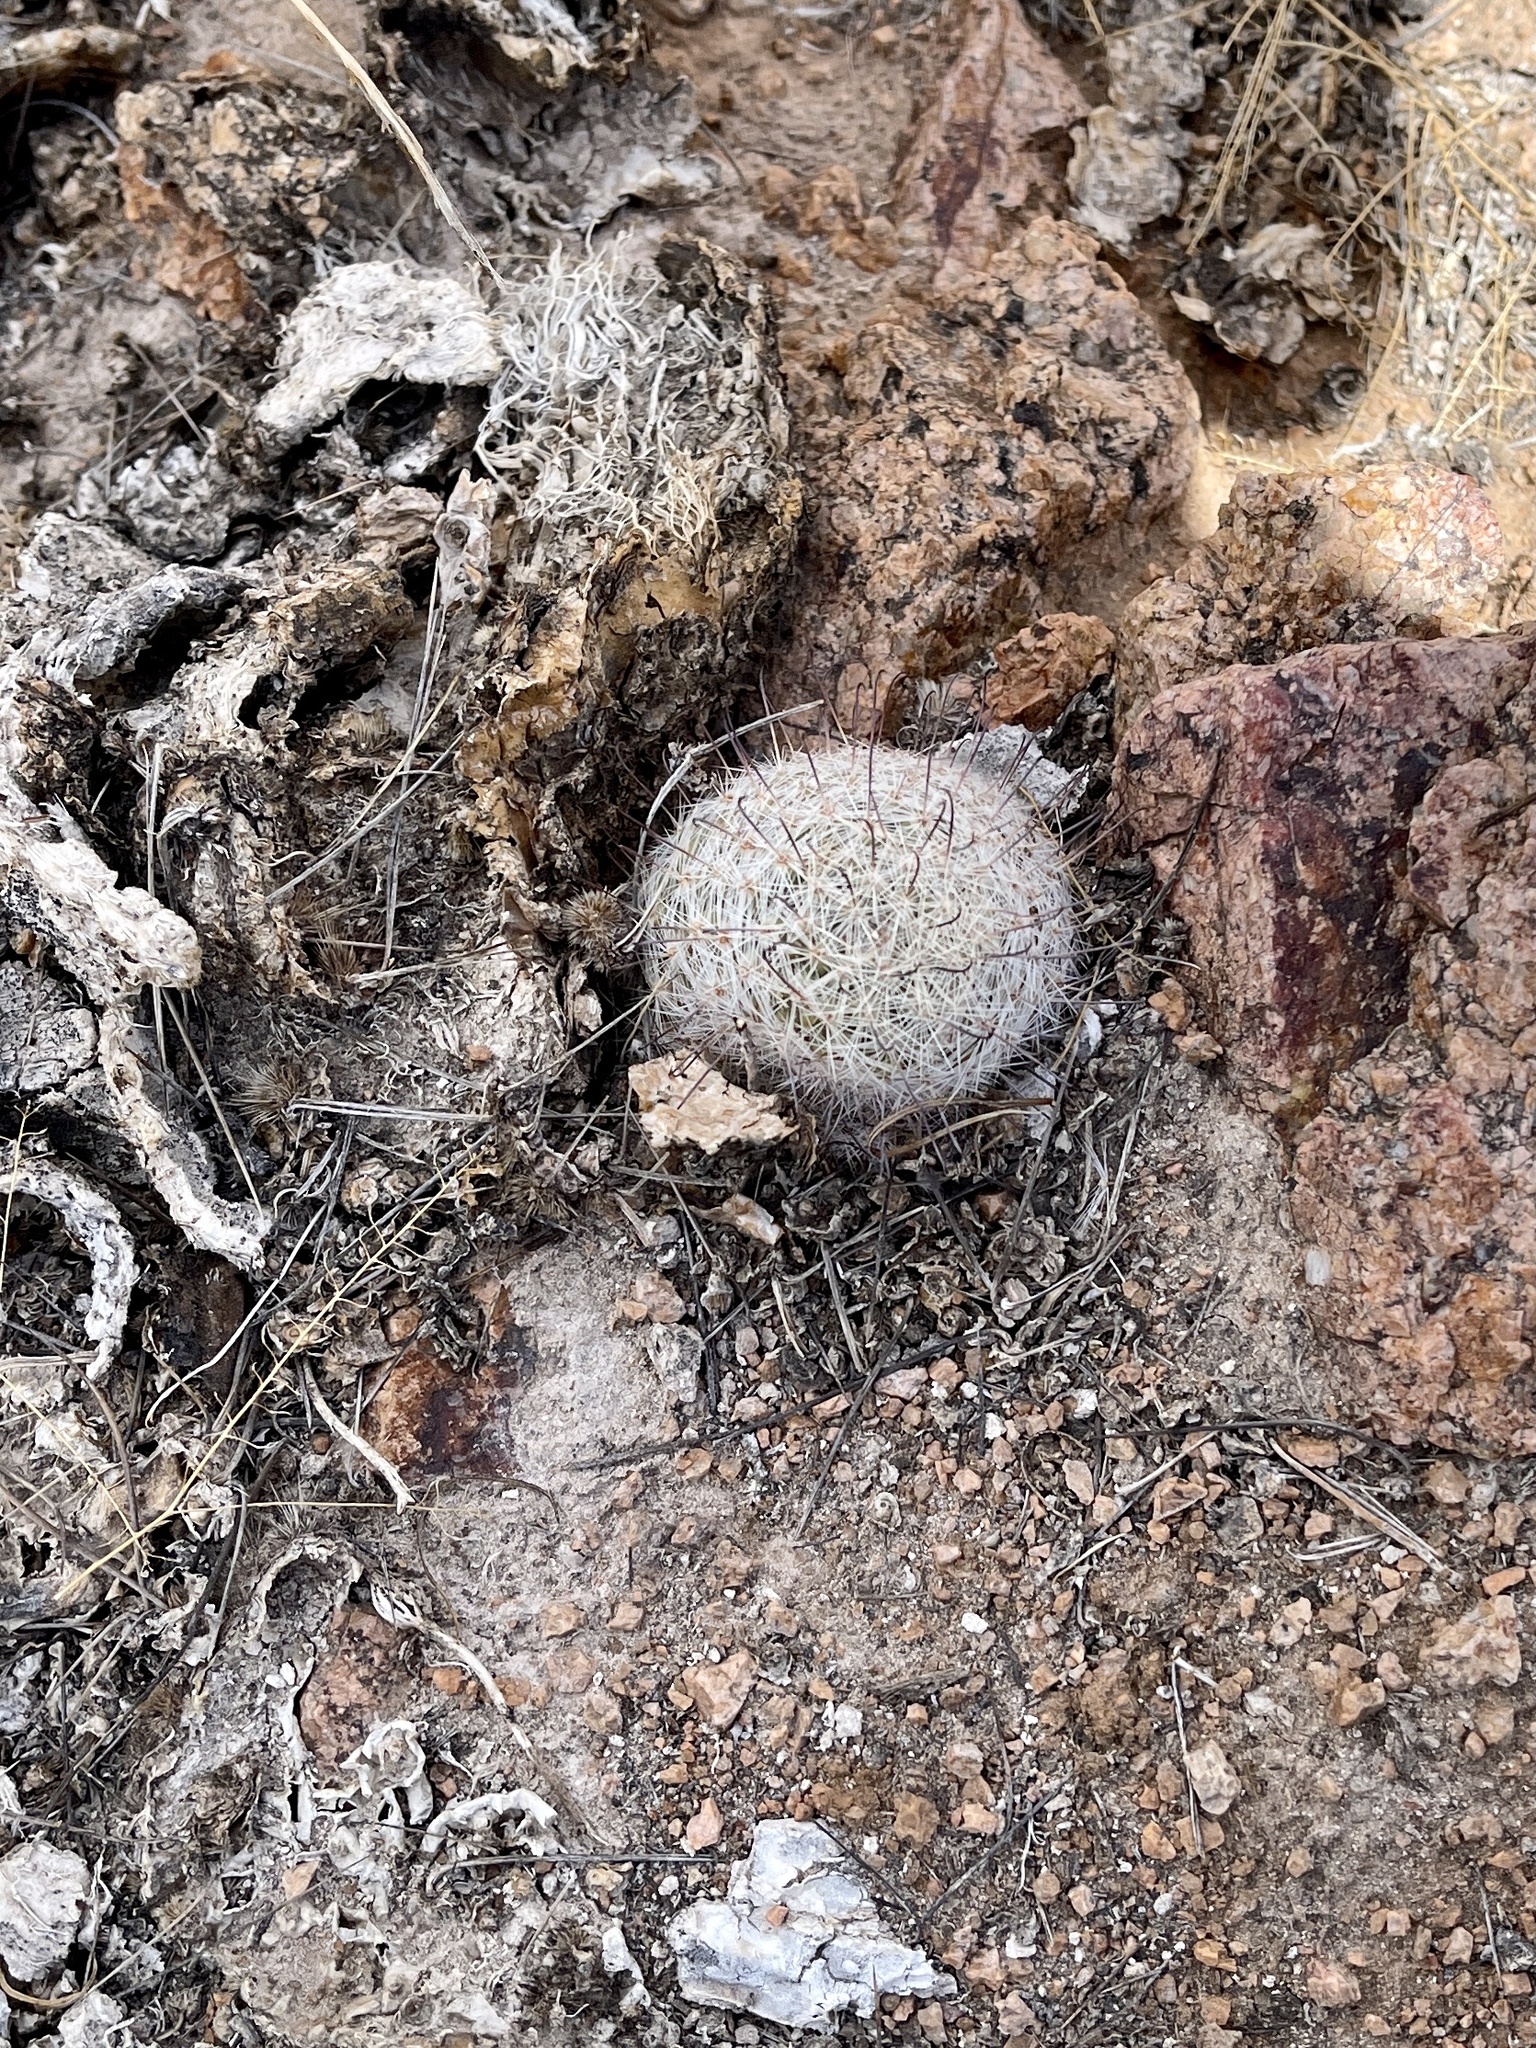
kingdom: Plantae
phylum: Tracheophyta
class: Magnoliopsida
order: Caryophyllales
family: Cactaceae
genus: Cochemiea
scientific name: Cochemiea grahamii
